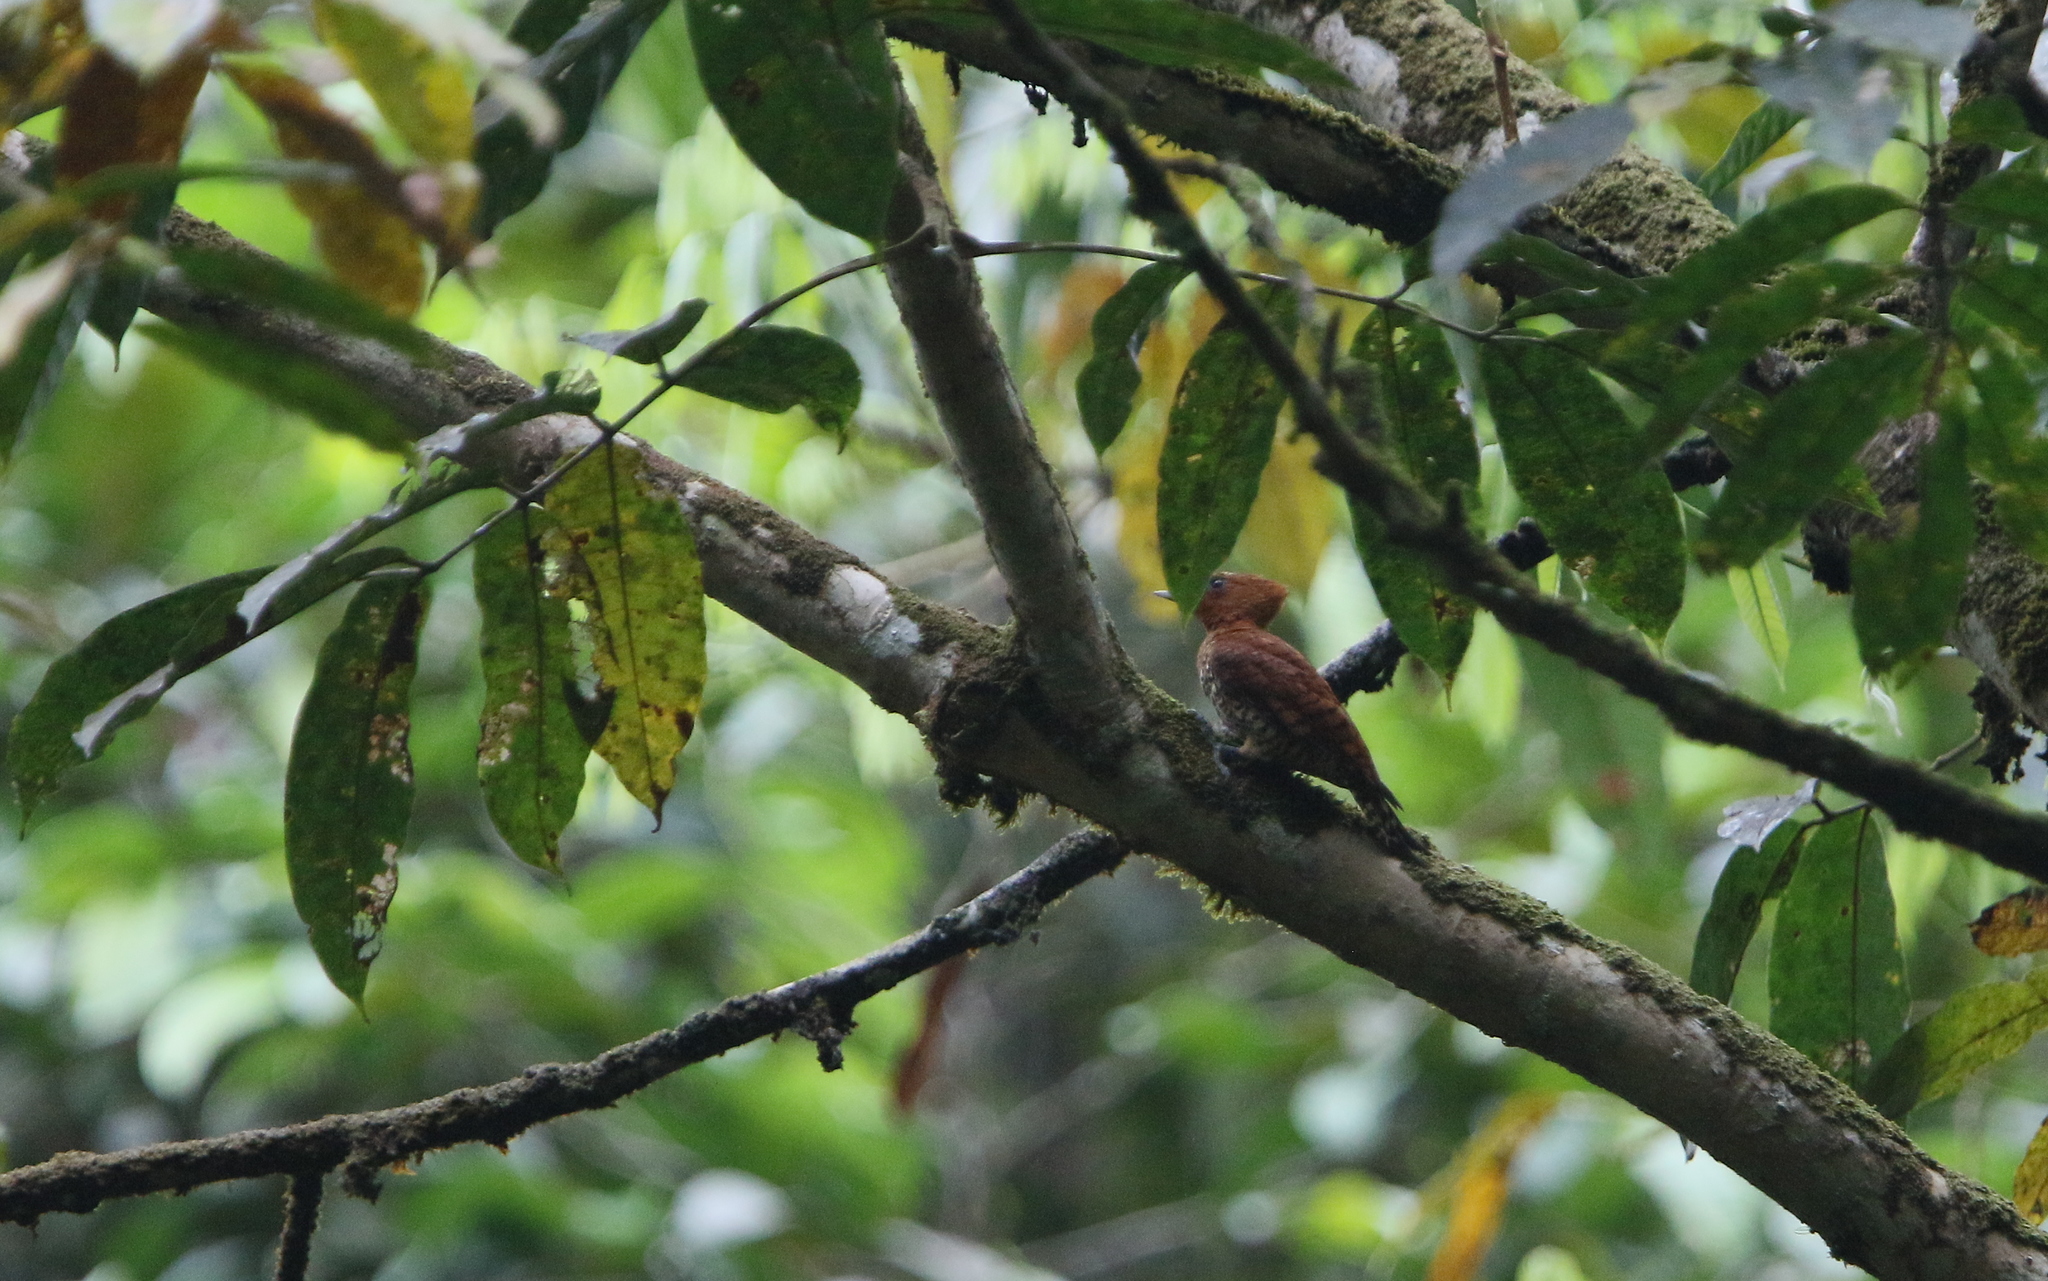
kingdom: Animalia
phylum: Chordata
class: Aves
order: Piciformes
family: Picidae
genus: Celeus
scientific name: Celeus loricatus
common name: Cinnamon woodpecker
